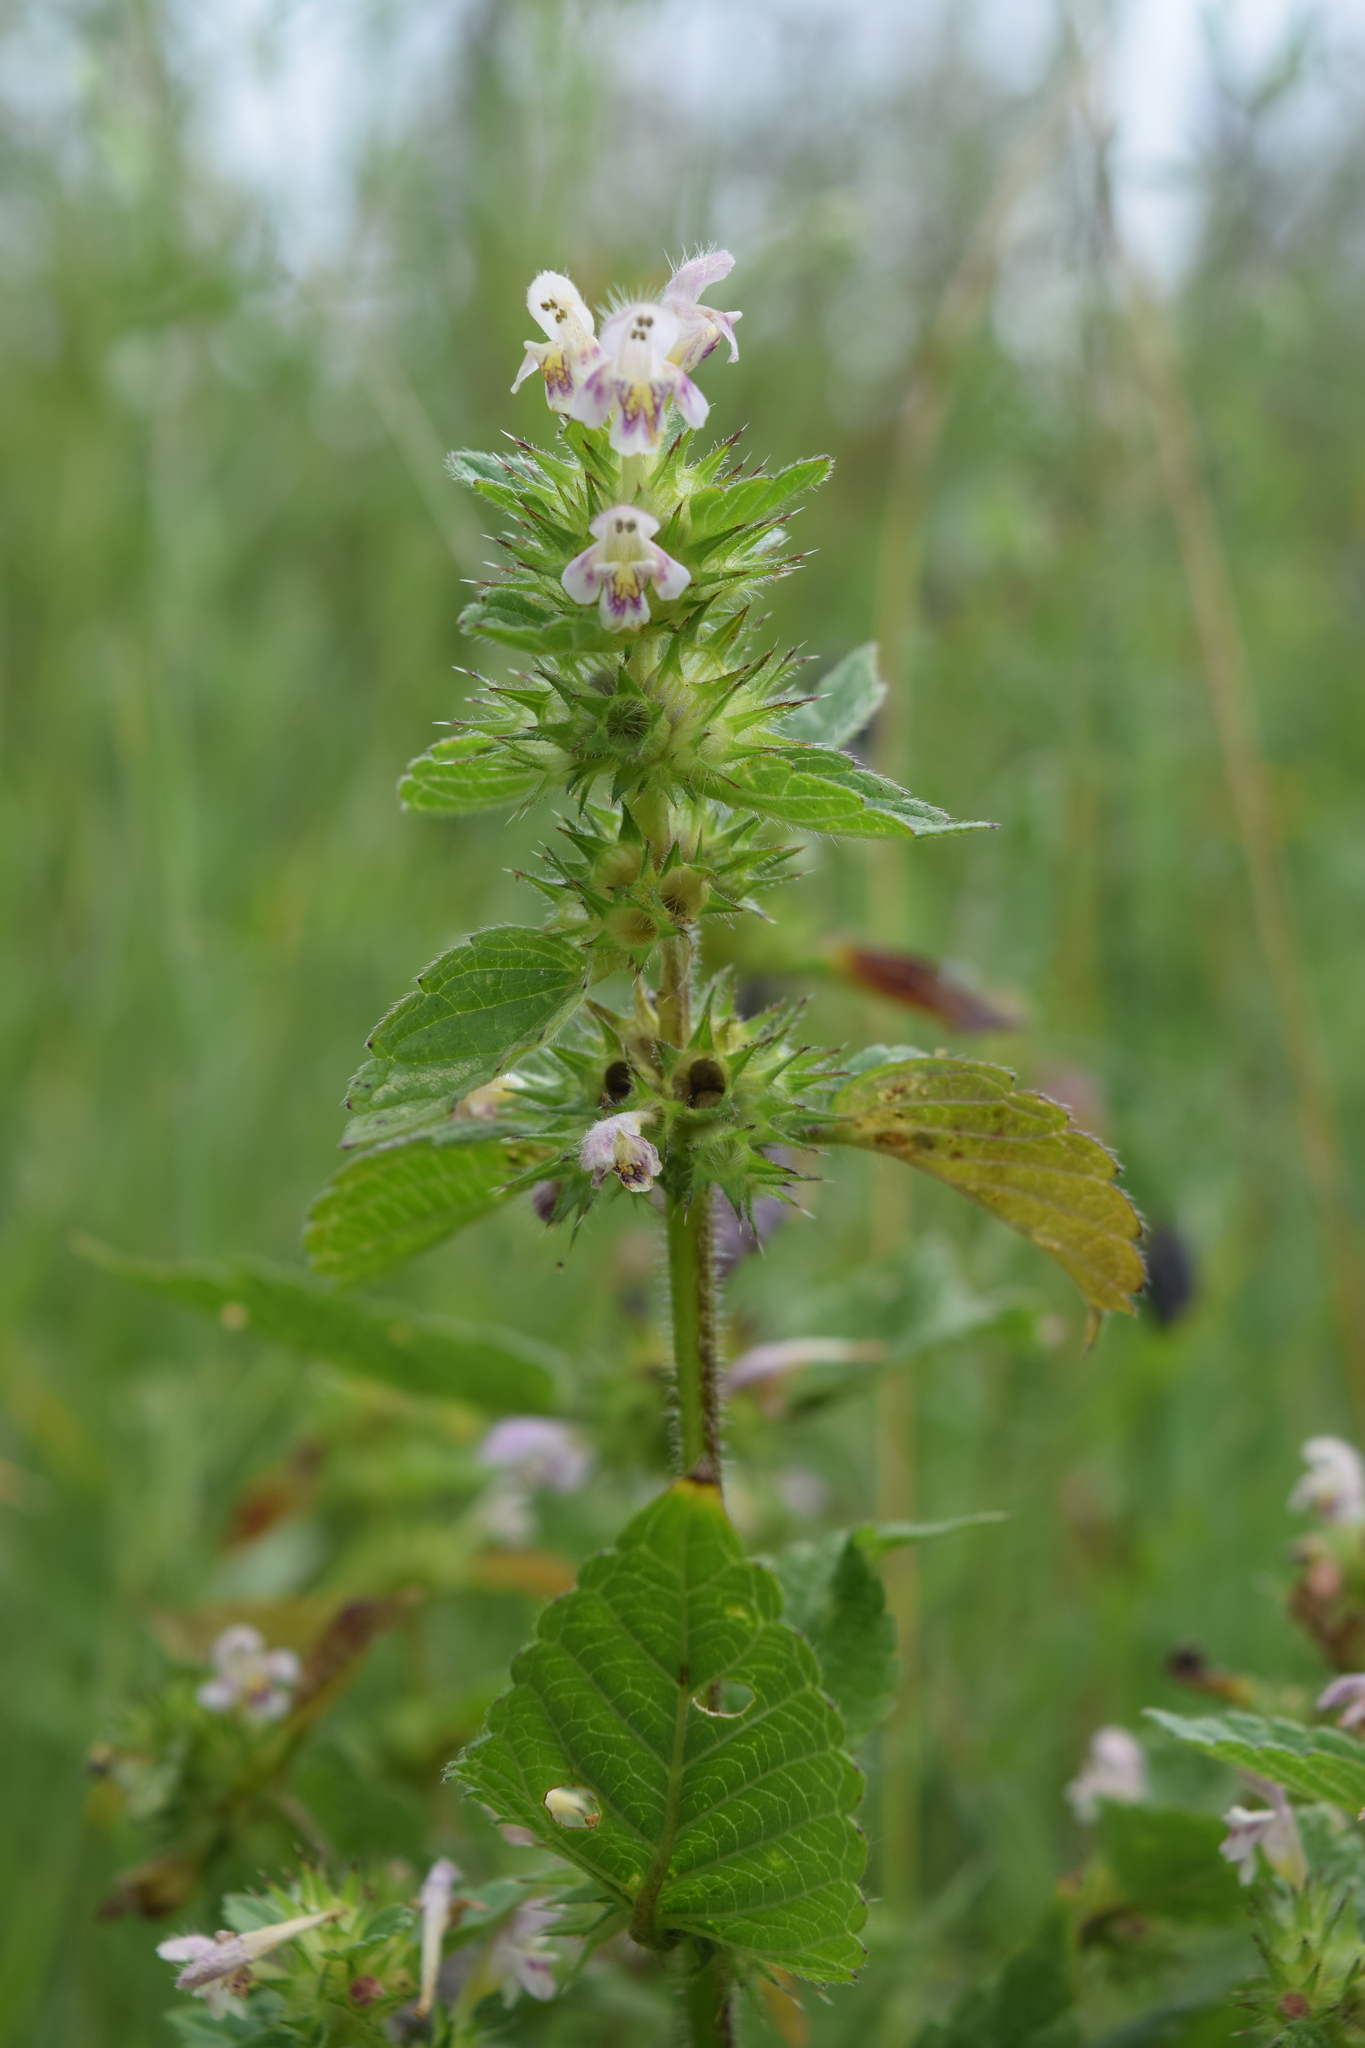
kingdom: Plantae
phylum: Tracheophyta
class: Magnoliopsida
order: Lamiales
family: Lamiaceae
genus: Galeopsis
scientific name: Galeopsis bifida
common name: Bifid hemp-nettle
